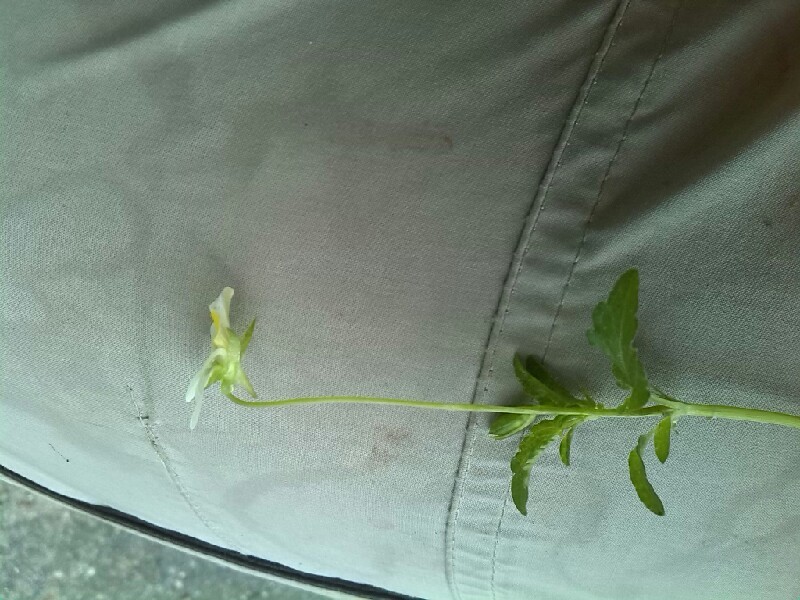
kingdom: Plantae
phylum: Tracheophyta
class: Magnoliopsida
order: Malpighiales
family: Violaceae
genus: Viola
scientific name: Viola arvensis
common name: Field pansy
